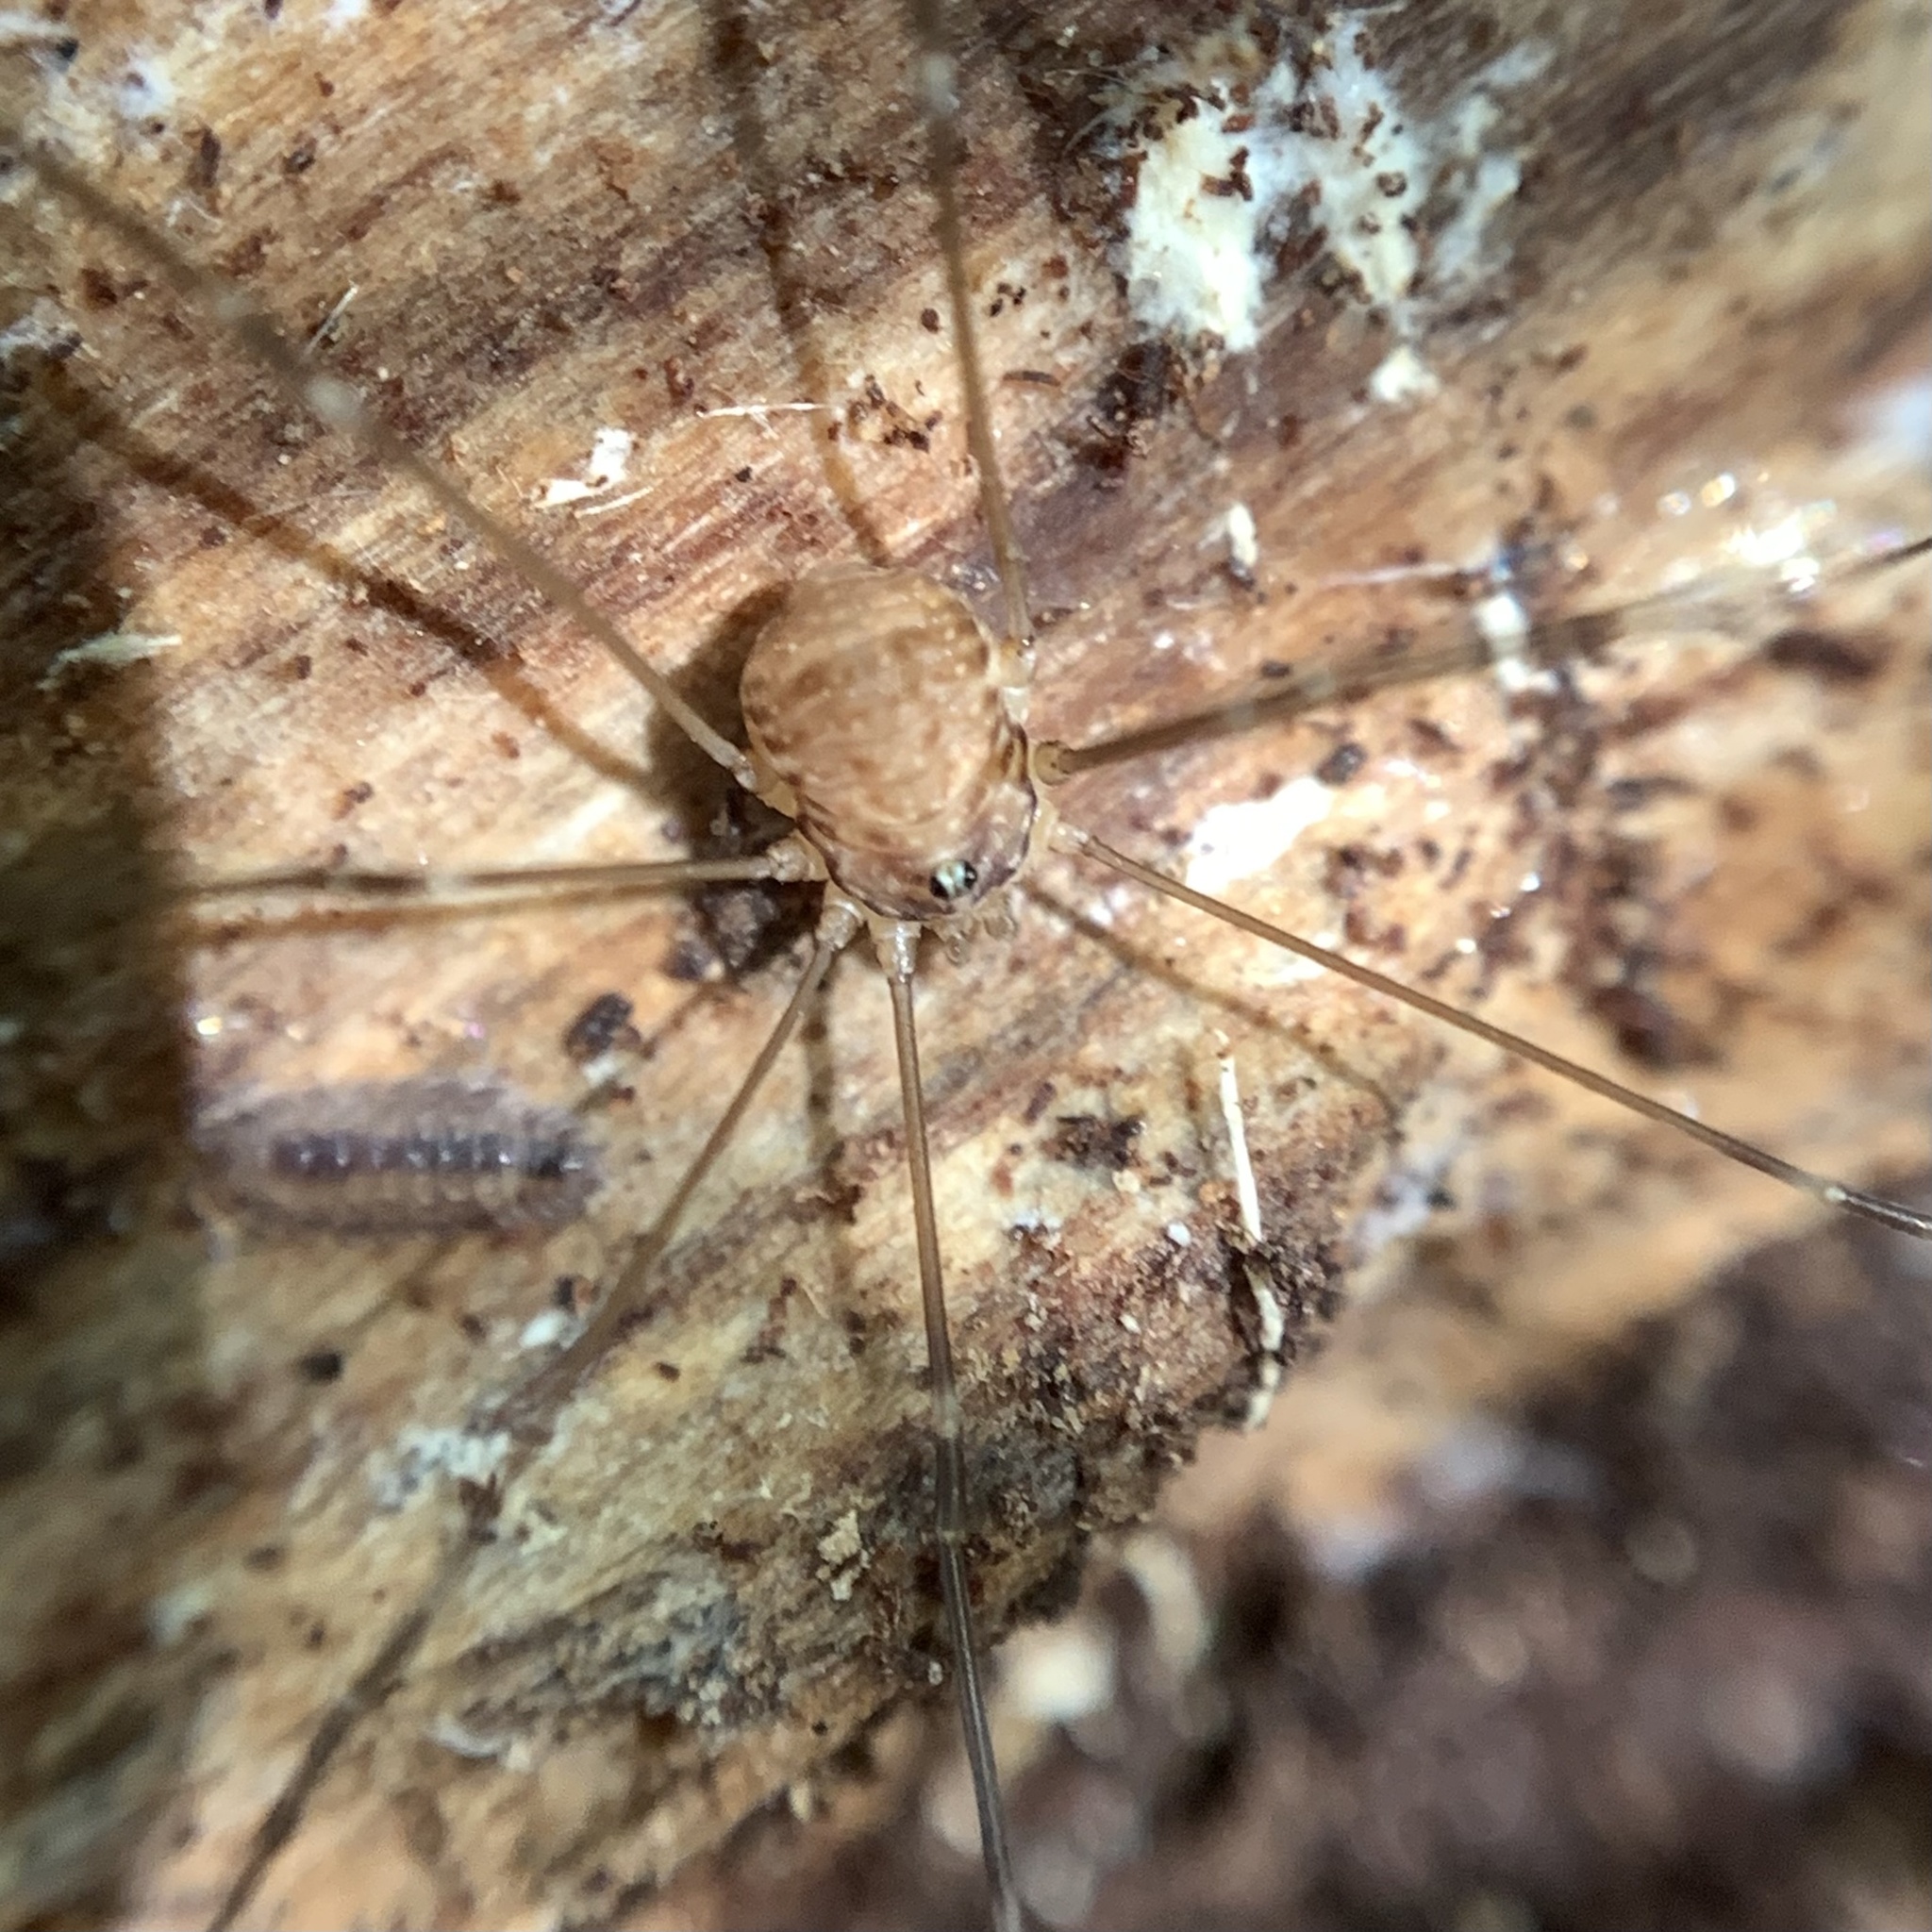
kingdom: Animalia
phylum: Arthropoda
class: Arachnida
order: Opiliones
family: Sclerosomatidae
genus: Leiobunum
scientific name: Leiobunum blackwalli
